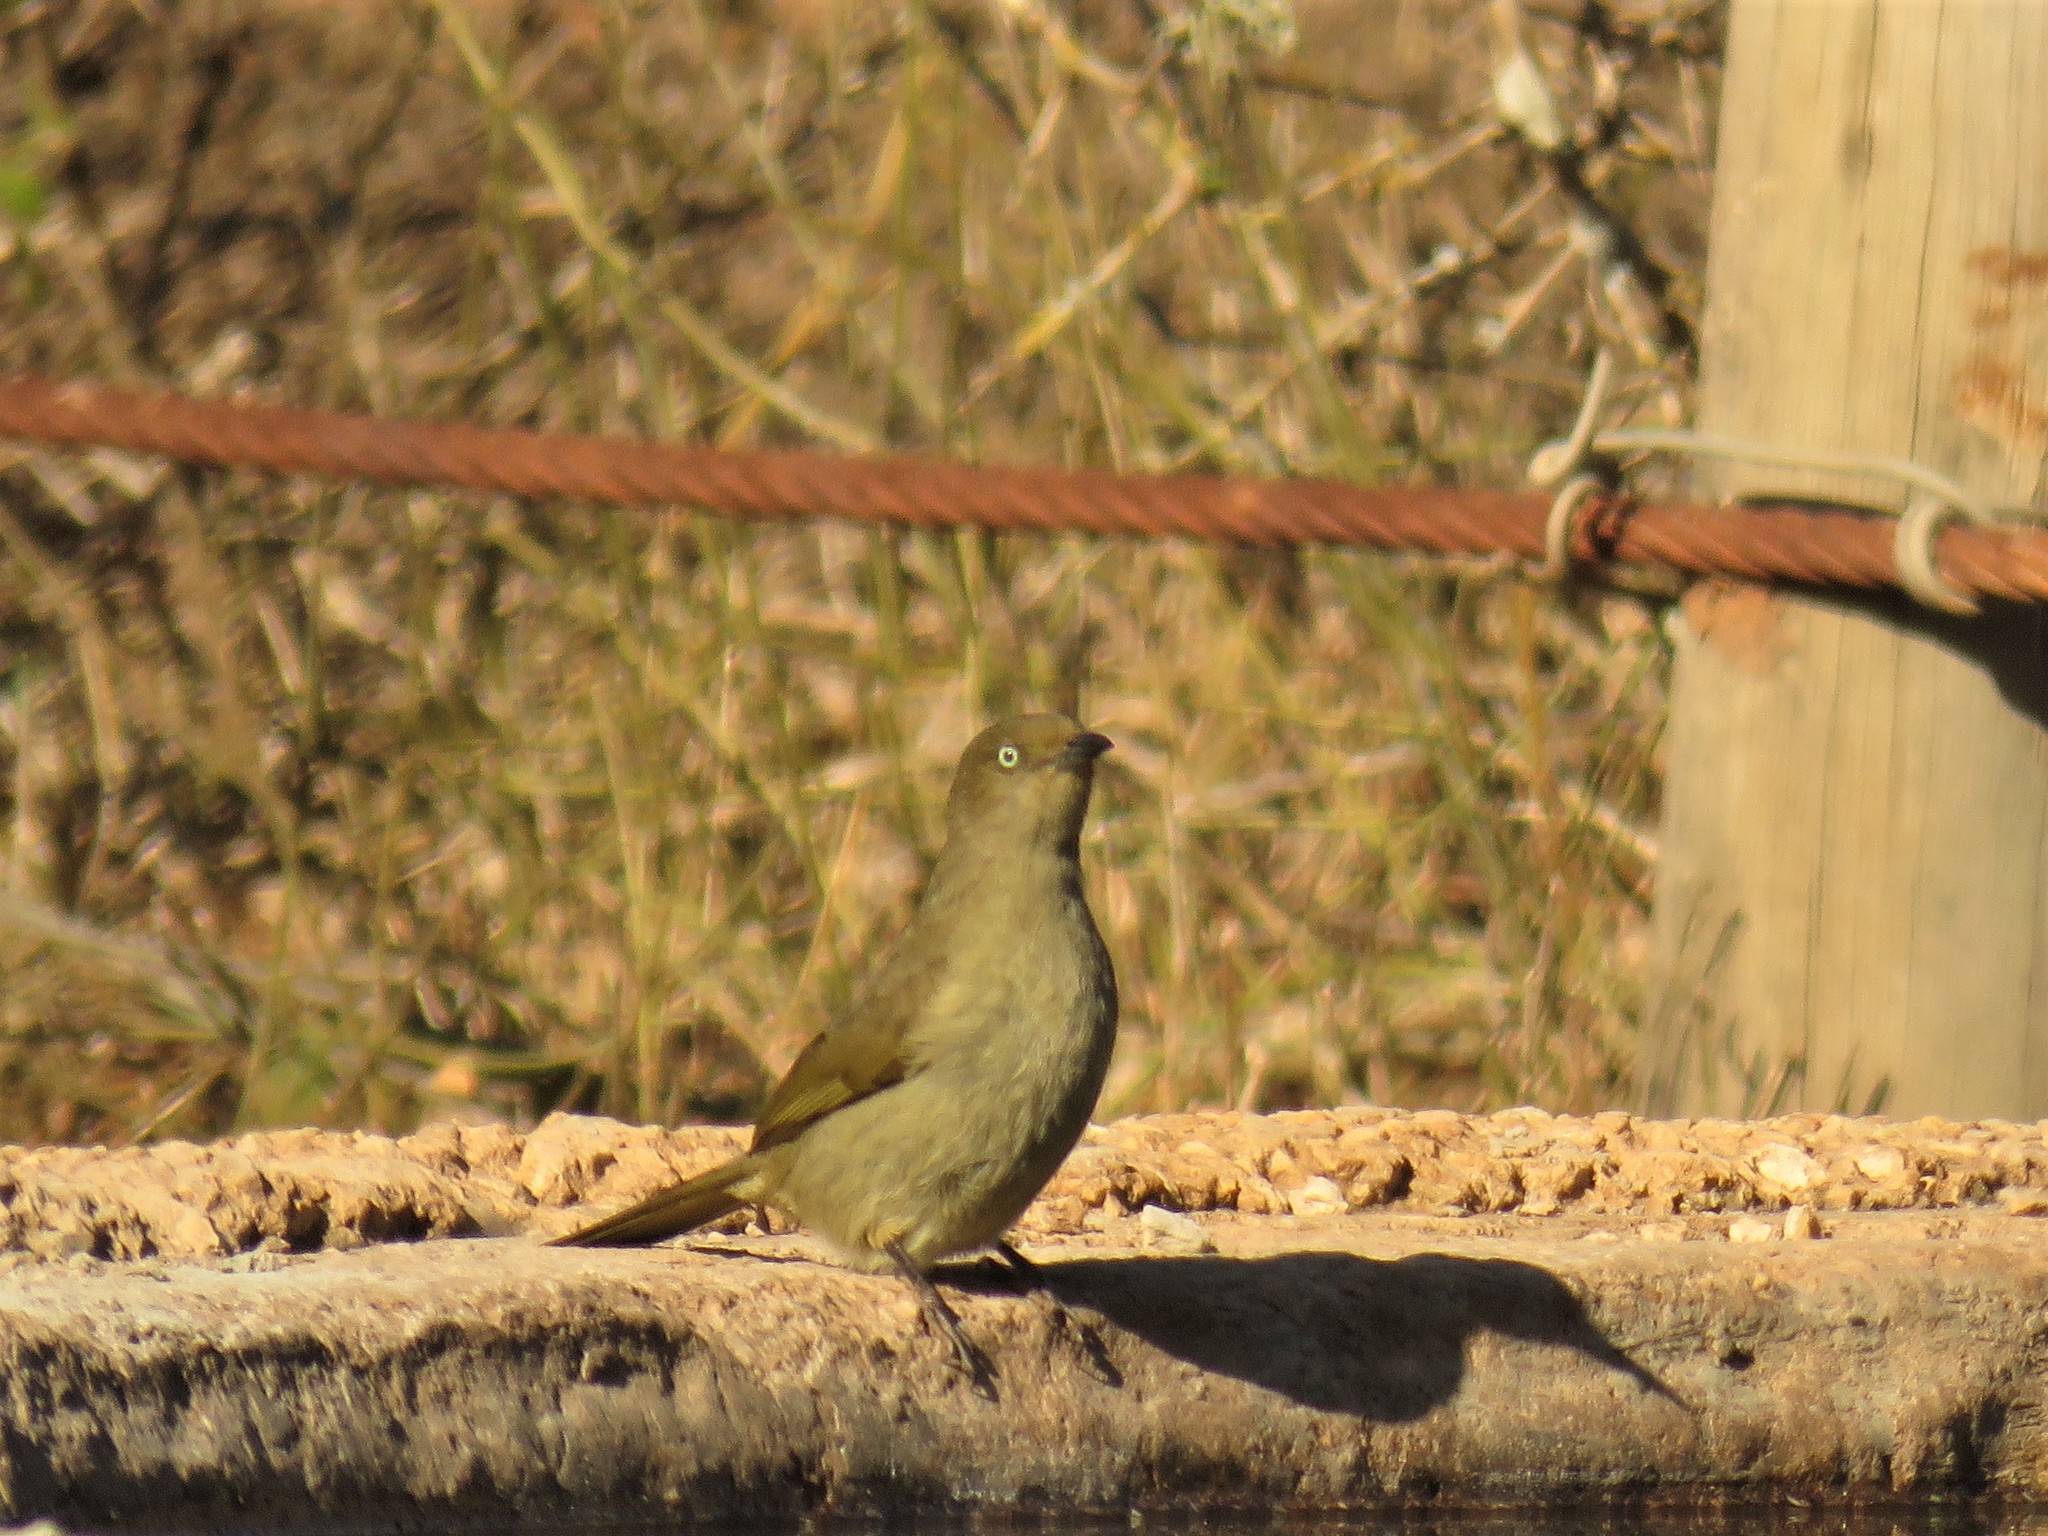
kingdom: Animalia
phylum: Chordata
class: Aves
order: Passeriformes
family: Pycnonotidae
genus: Andropadus
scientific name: Andropadus importunus
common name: Sombre greenbul
